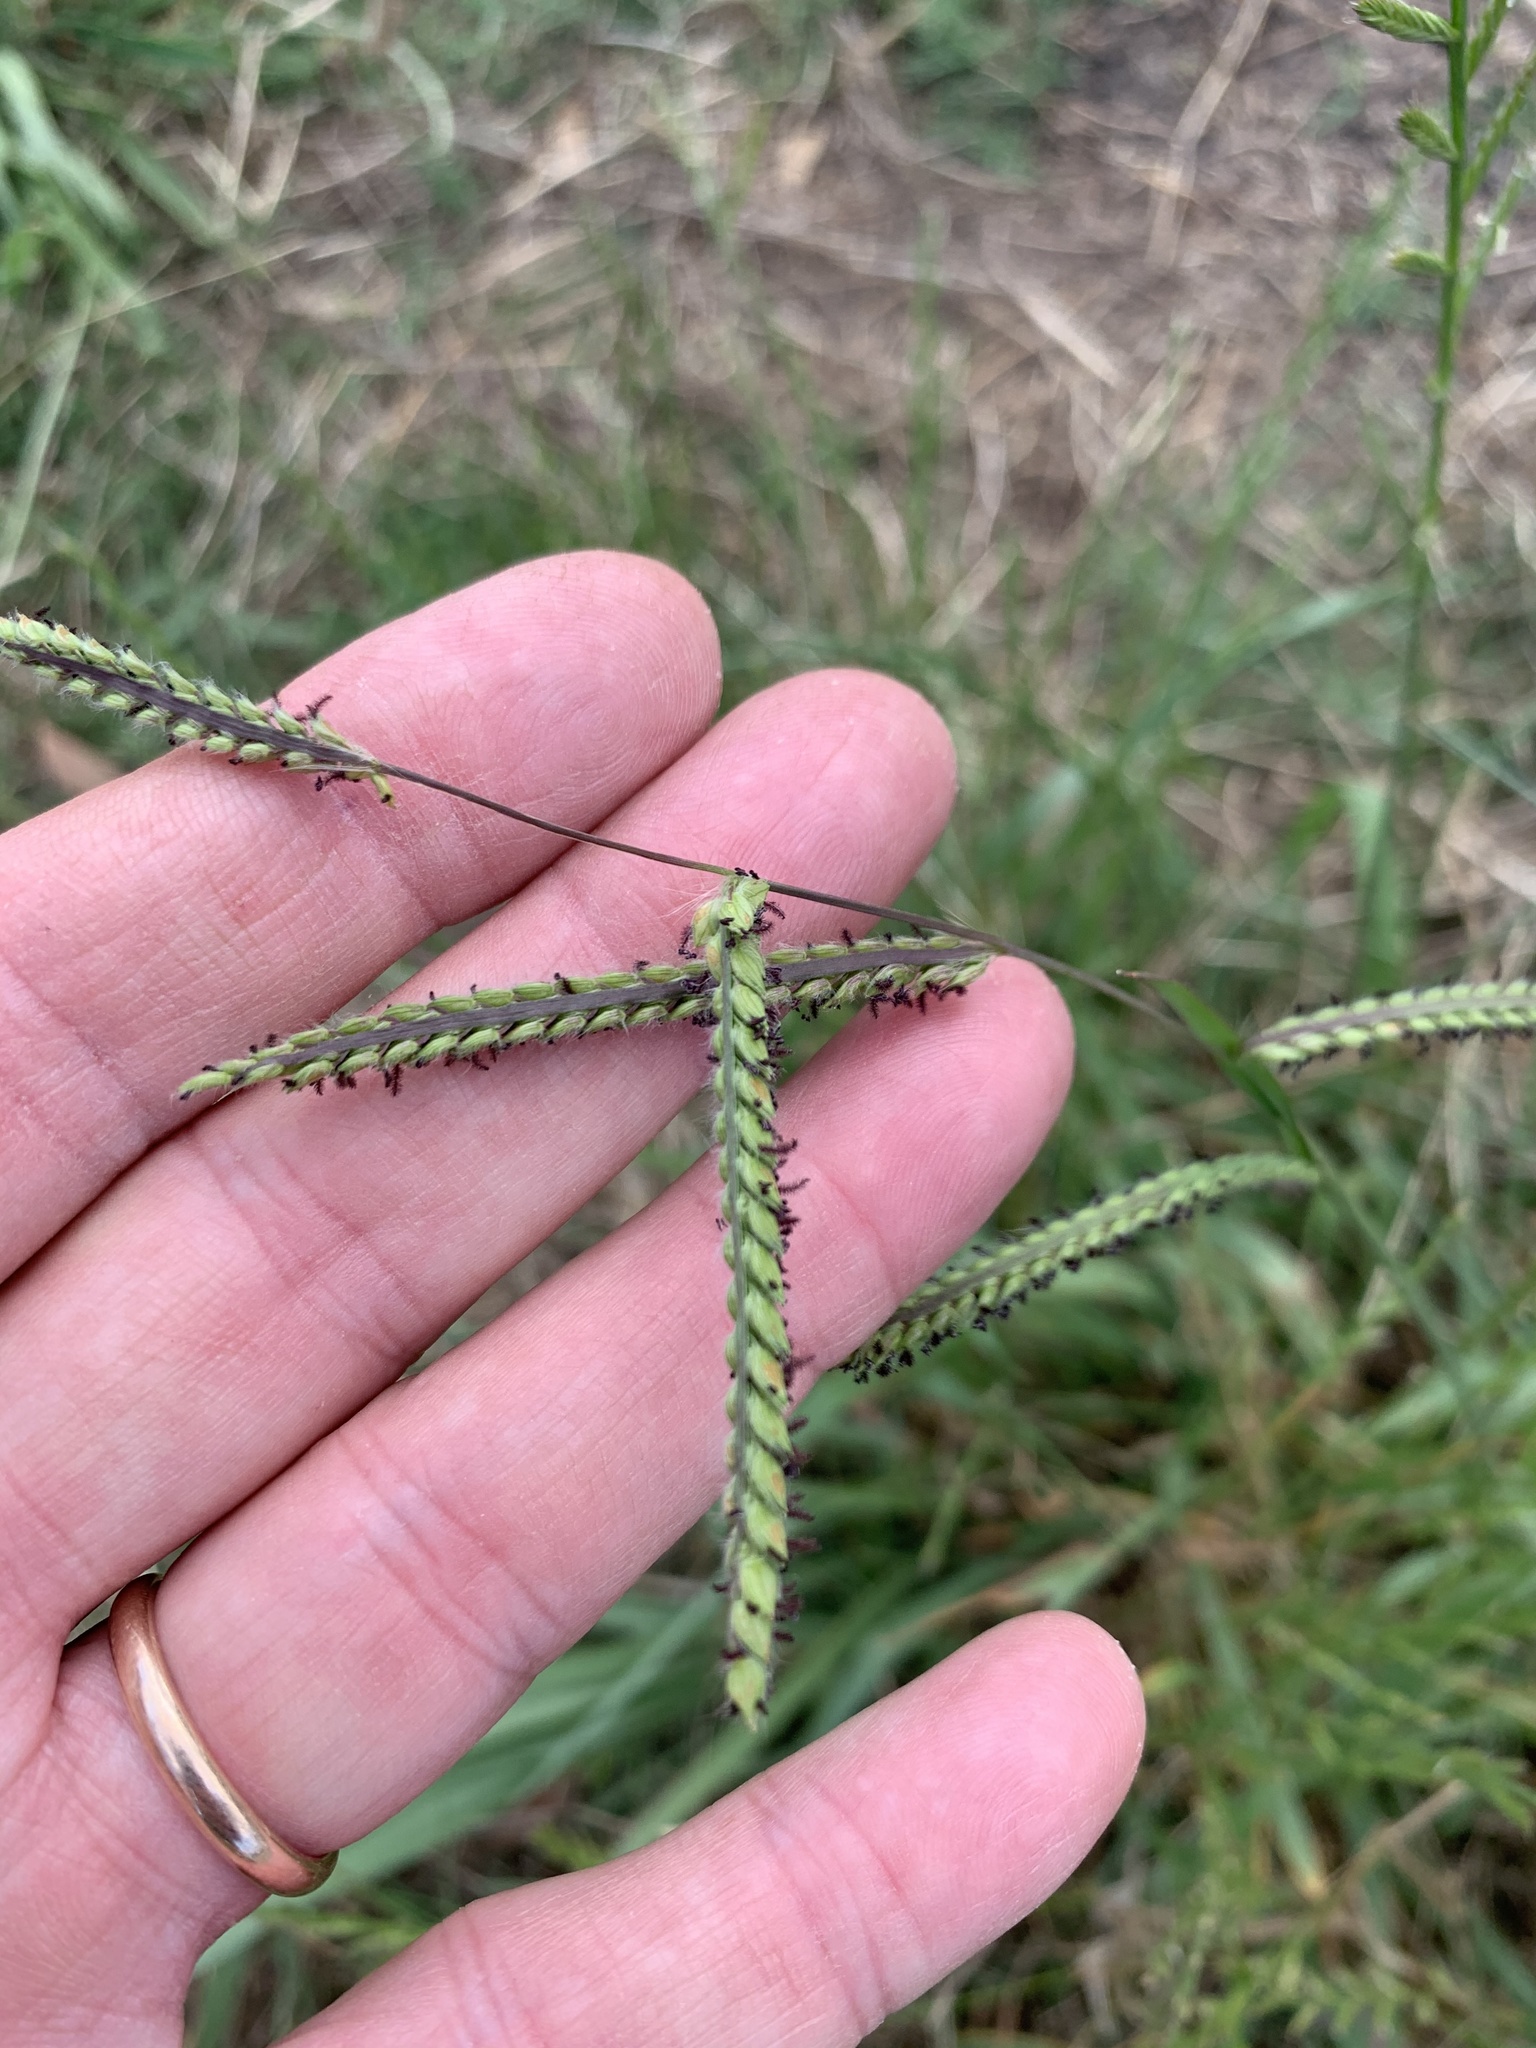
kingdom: Plantae
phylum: Tracheophyta
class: Liliopsida
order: Poales
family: Poaceae
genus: Paspalum
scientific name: Paspalum dilatatum
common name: Dallisgrass
